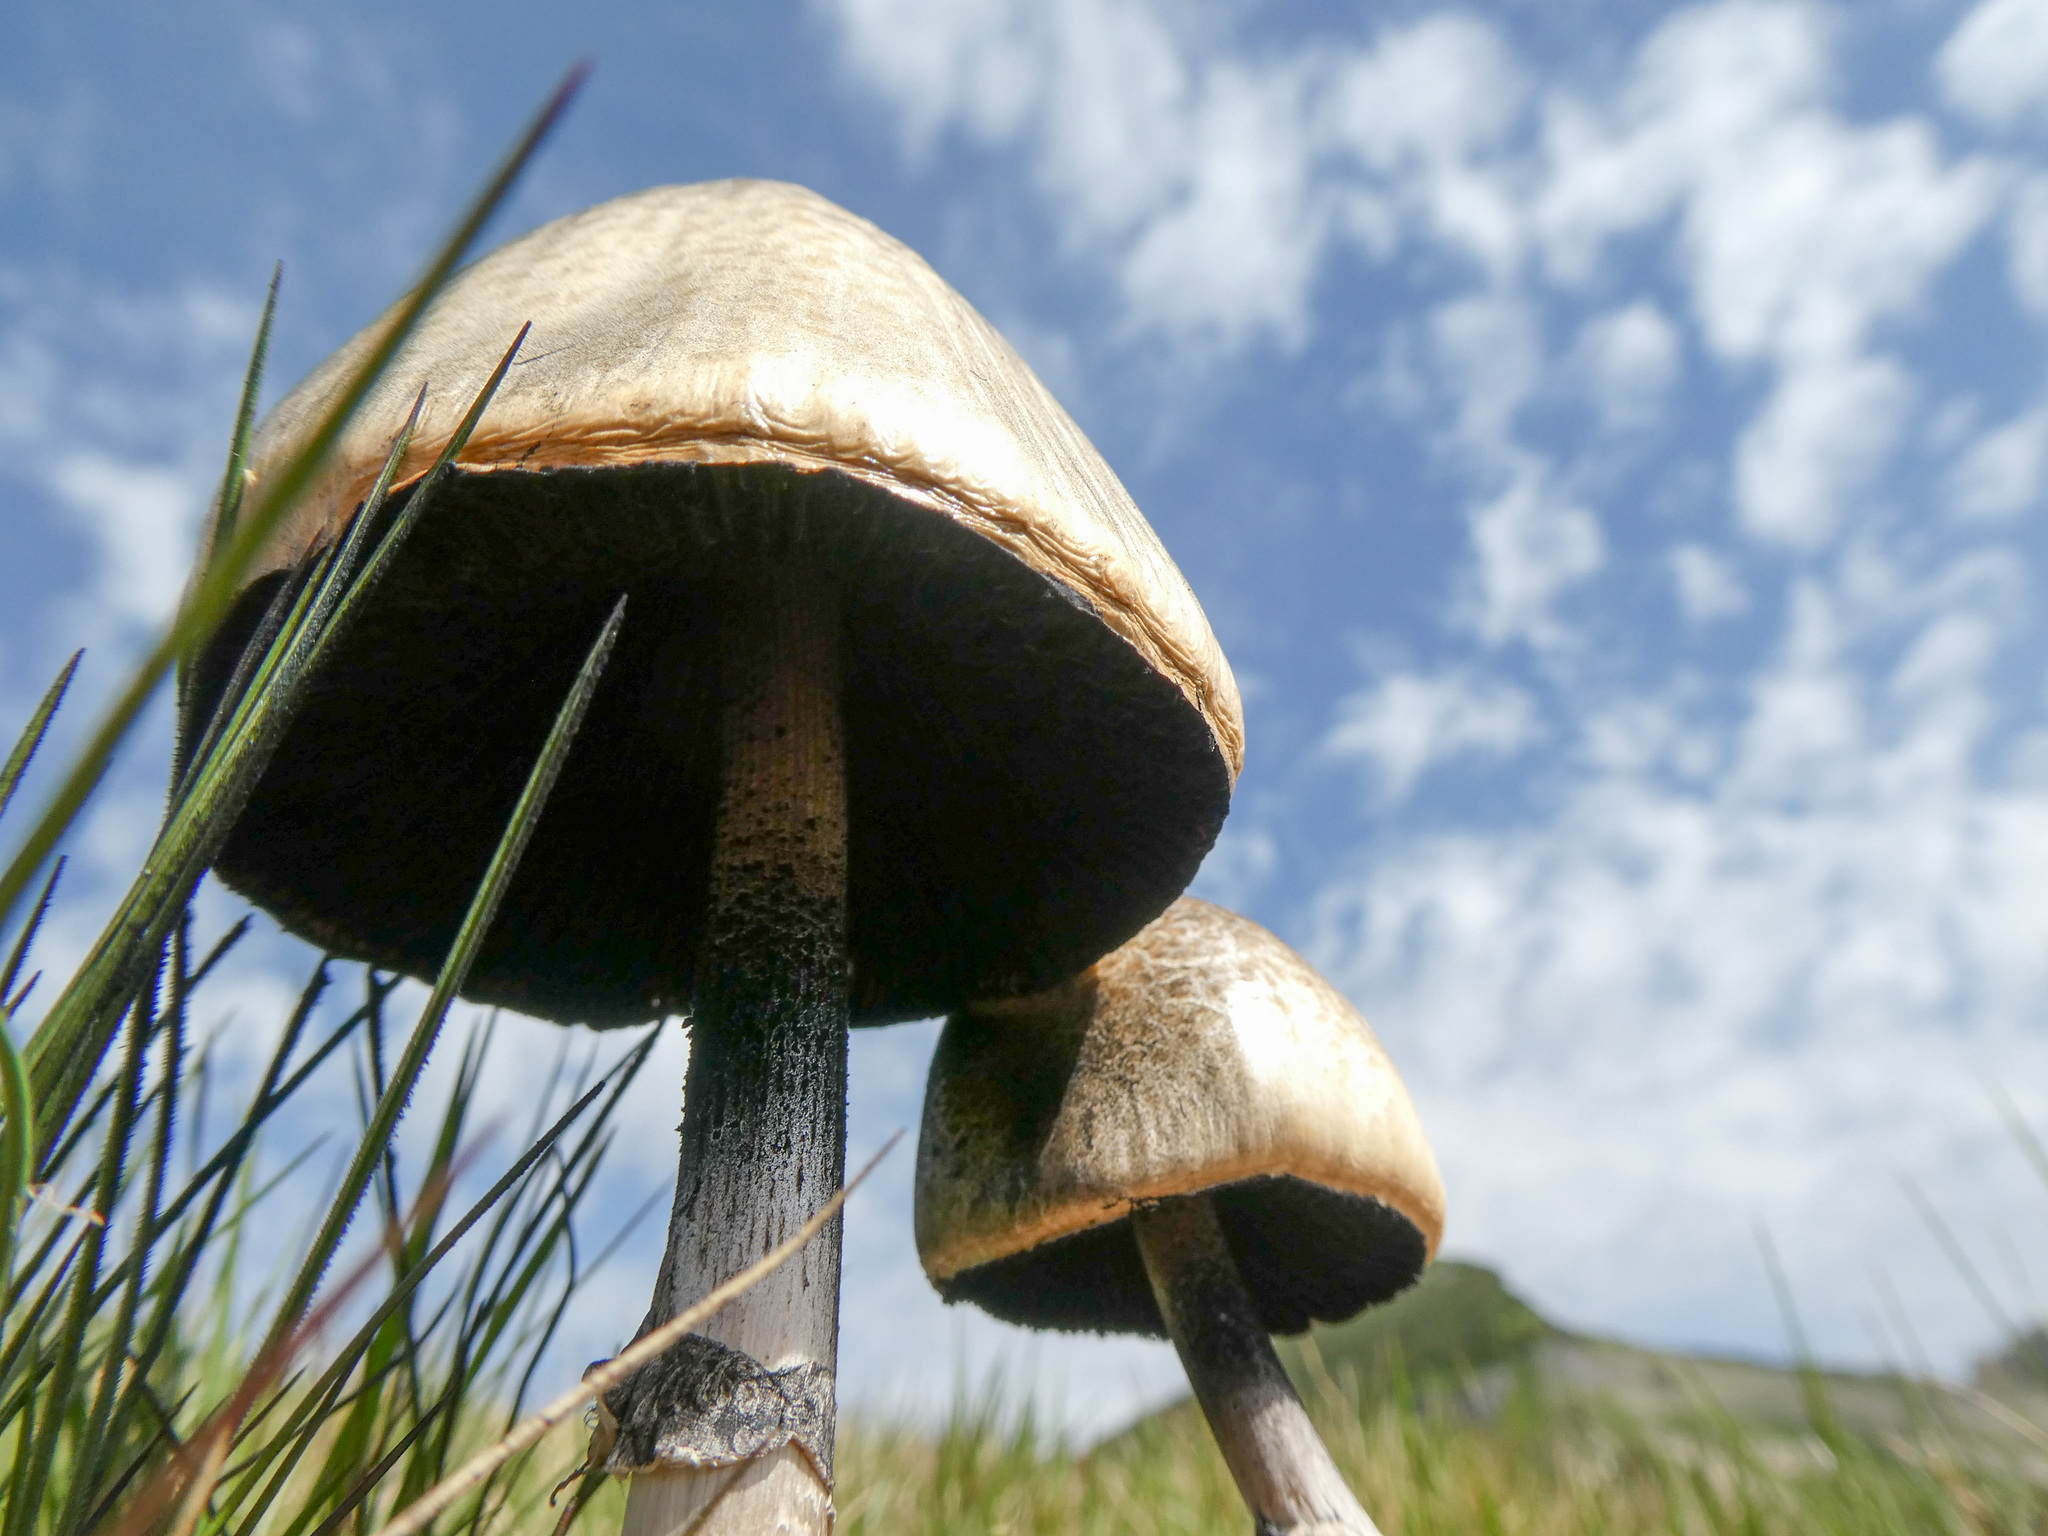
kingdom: Fungi
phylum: Basidiomycota
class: Agaricomycetes
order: Agaricales
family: Bolbitiaceae
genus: Panaeolus
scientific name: Panaeolus semiovatus
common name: Shiny mottlegill
